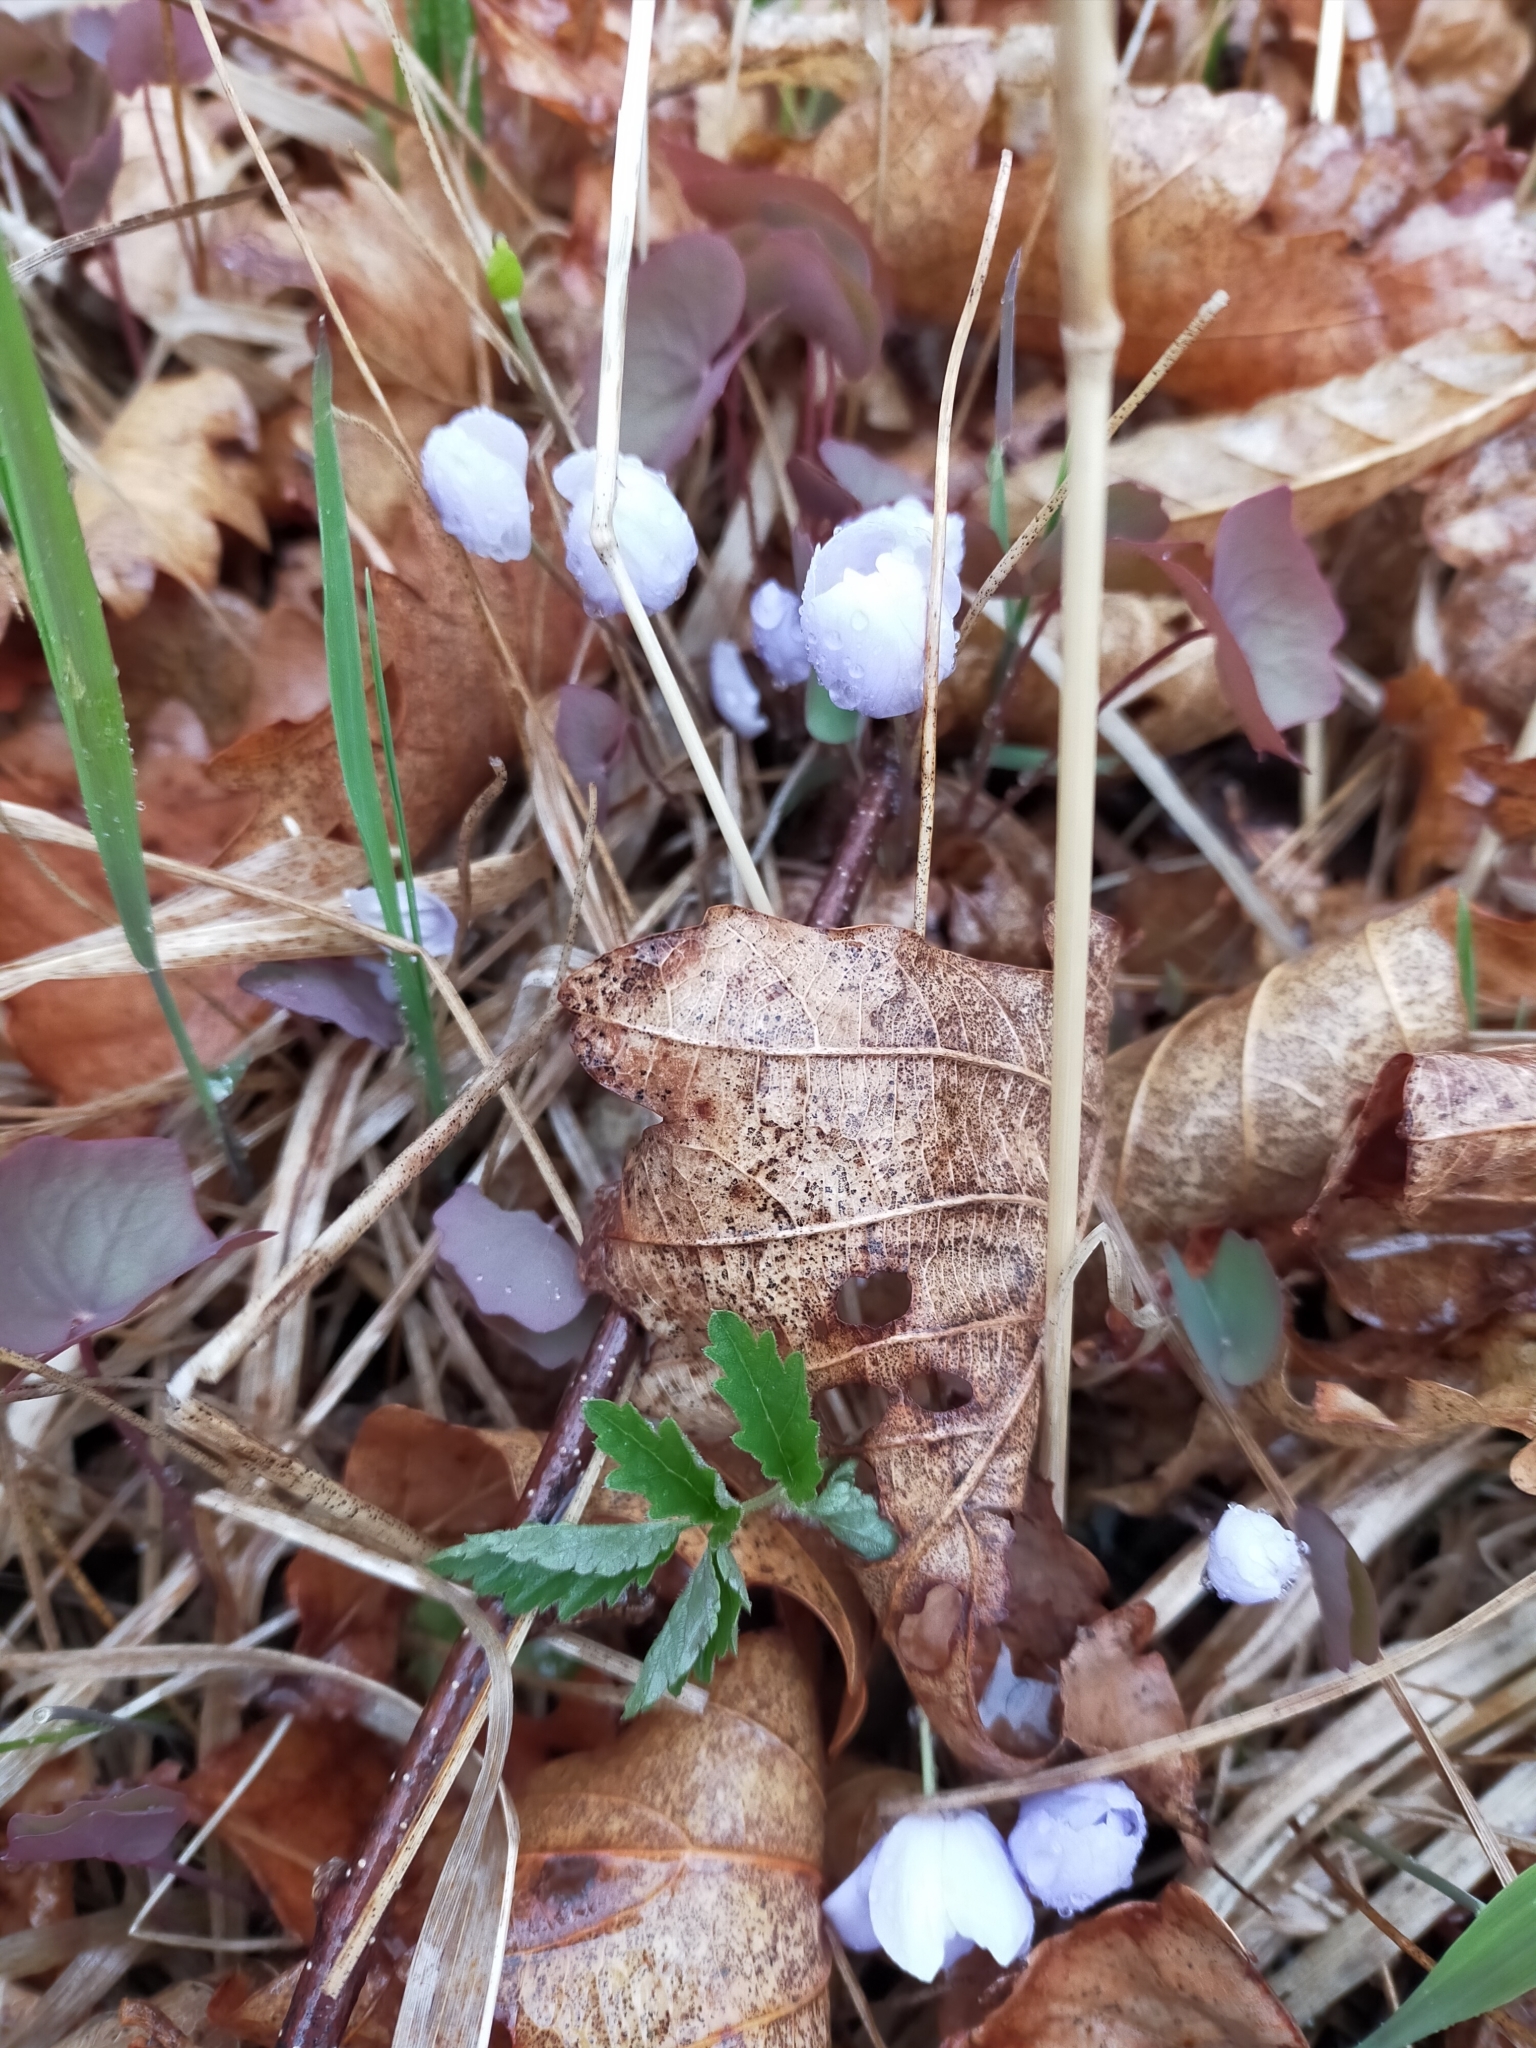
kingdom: Plantae
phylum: Tracheophyta
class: Magnoliopsida
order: Ranunculales
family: Berberidaceae
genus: Plagiorhegma
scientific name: Plagiorhegma dubium
